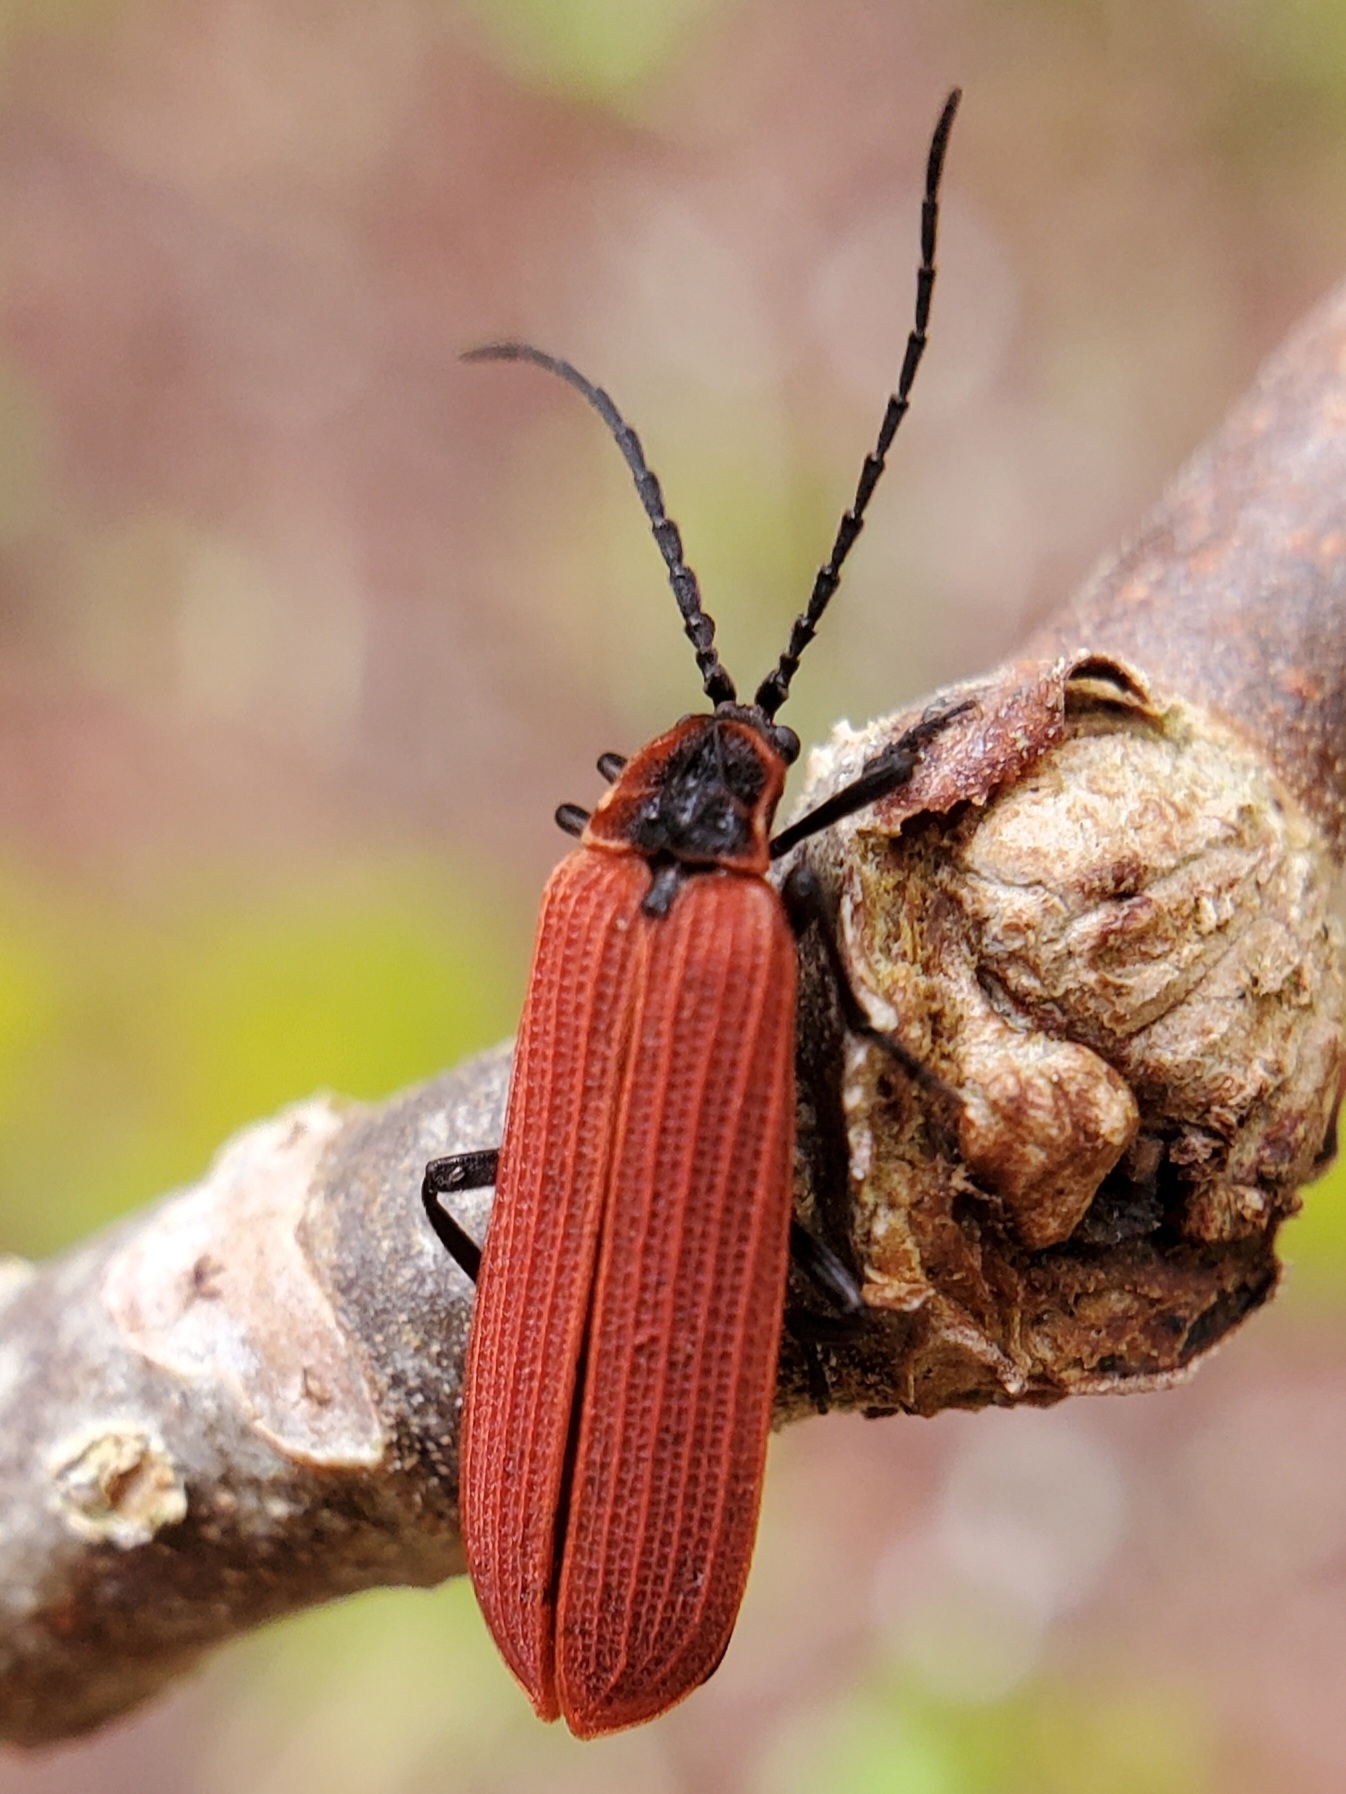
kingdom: Animalia
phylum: Arthropoda
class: Insecta
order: Coleoptera
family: Lycidae
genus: Dictyoptera
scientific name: Dictyoptera aurora
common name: Golden net-winged beetle
